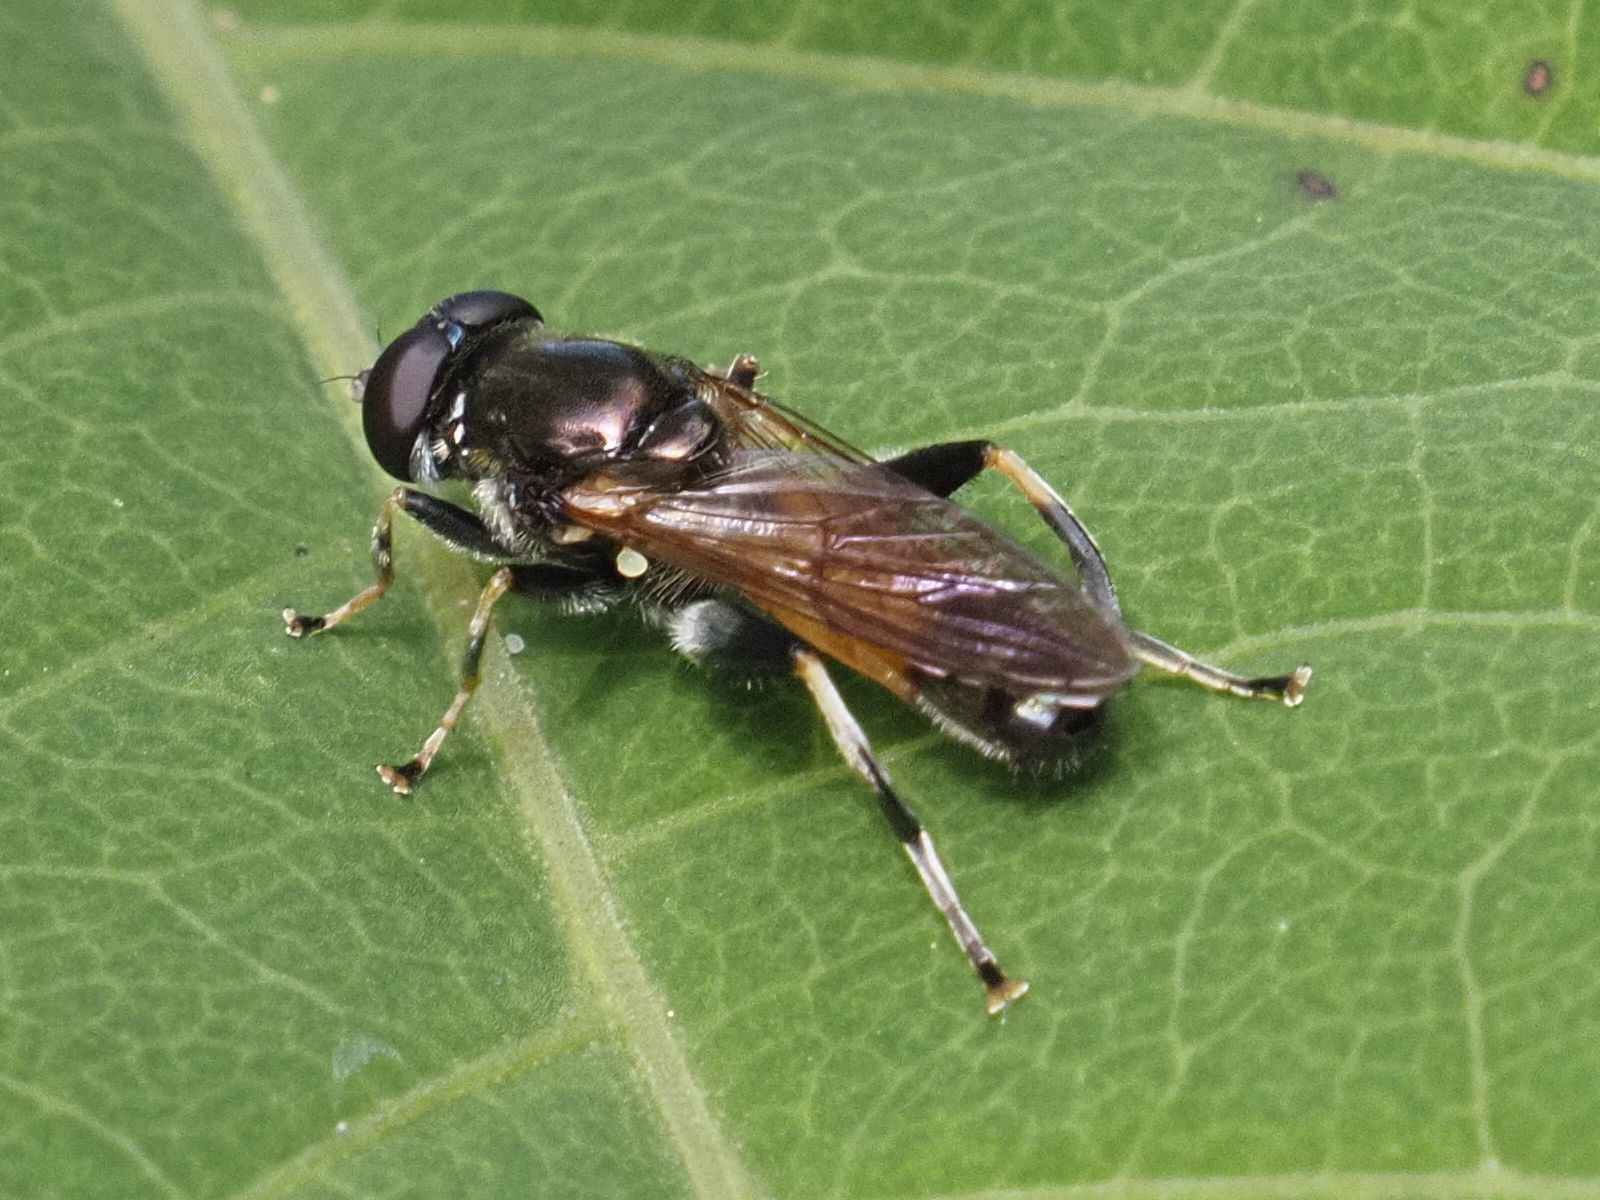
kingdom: Animalia
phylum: Arthropoda
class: Insecta
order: Diptera
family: Syrphidae
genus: Xylota
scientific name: Xylota segnis
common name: Brown-toed forest fly
